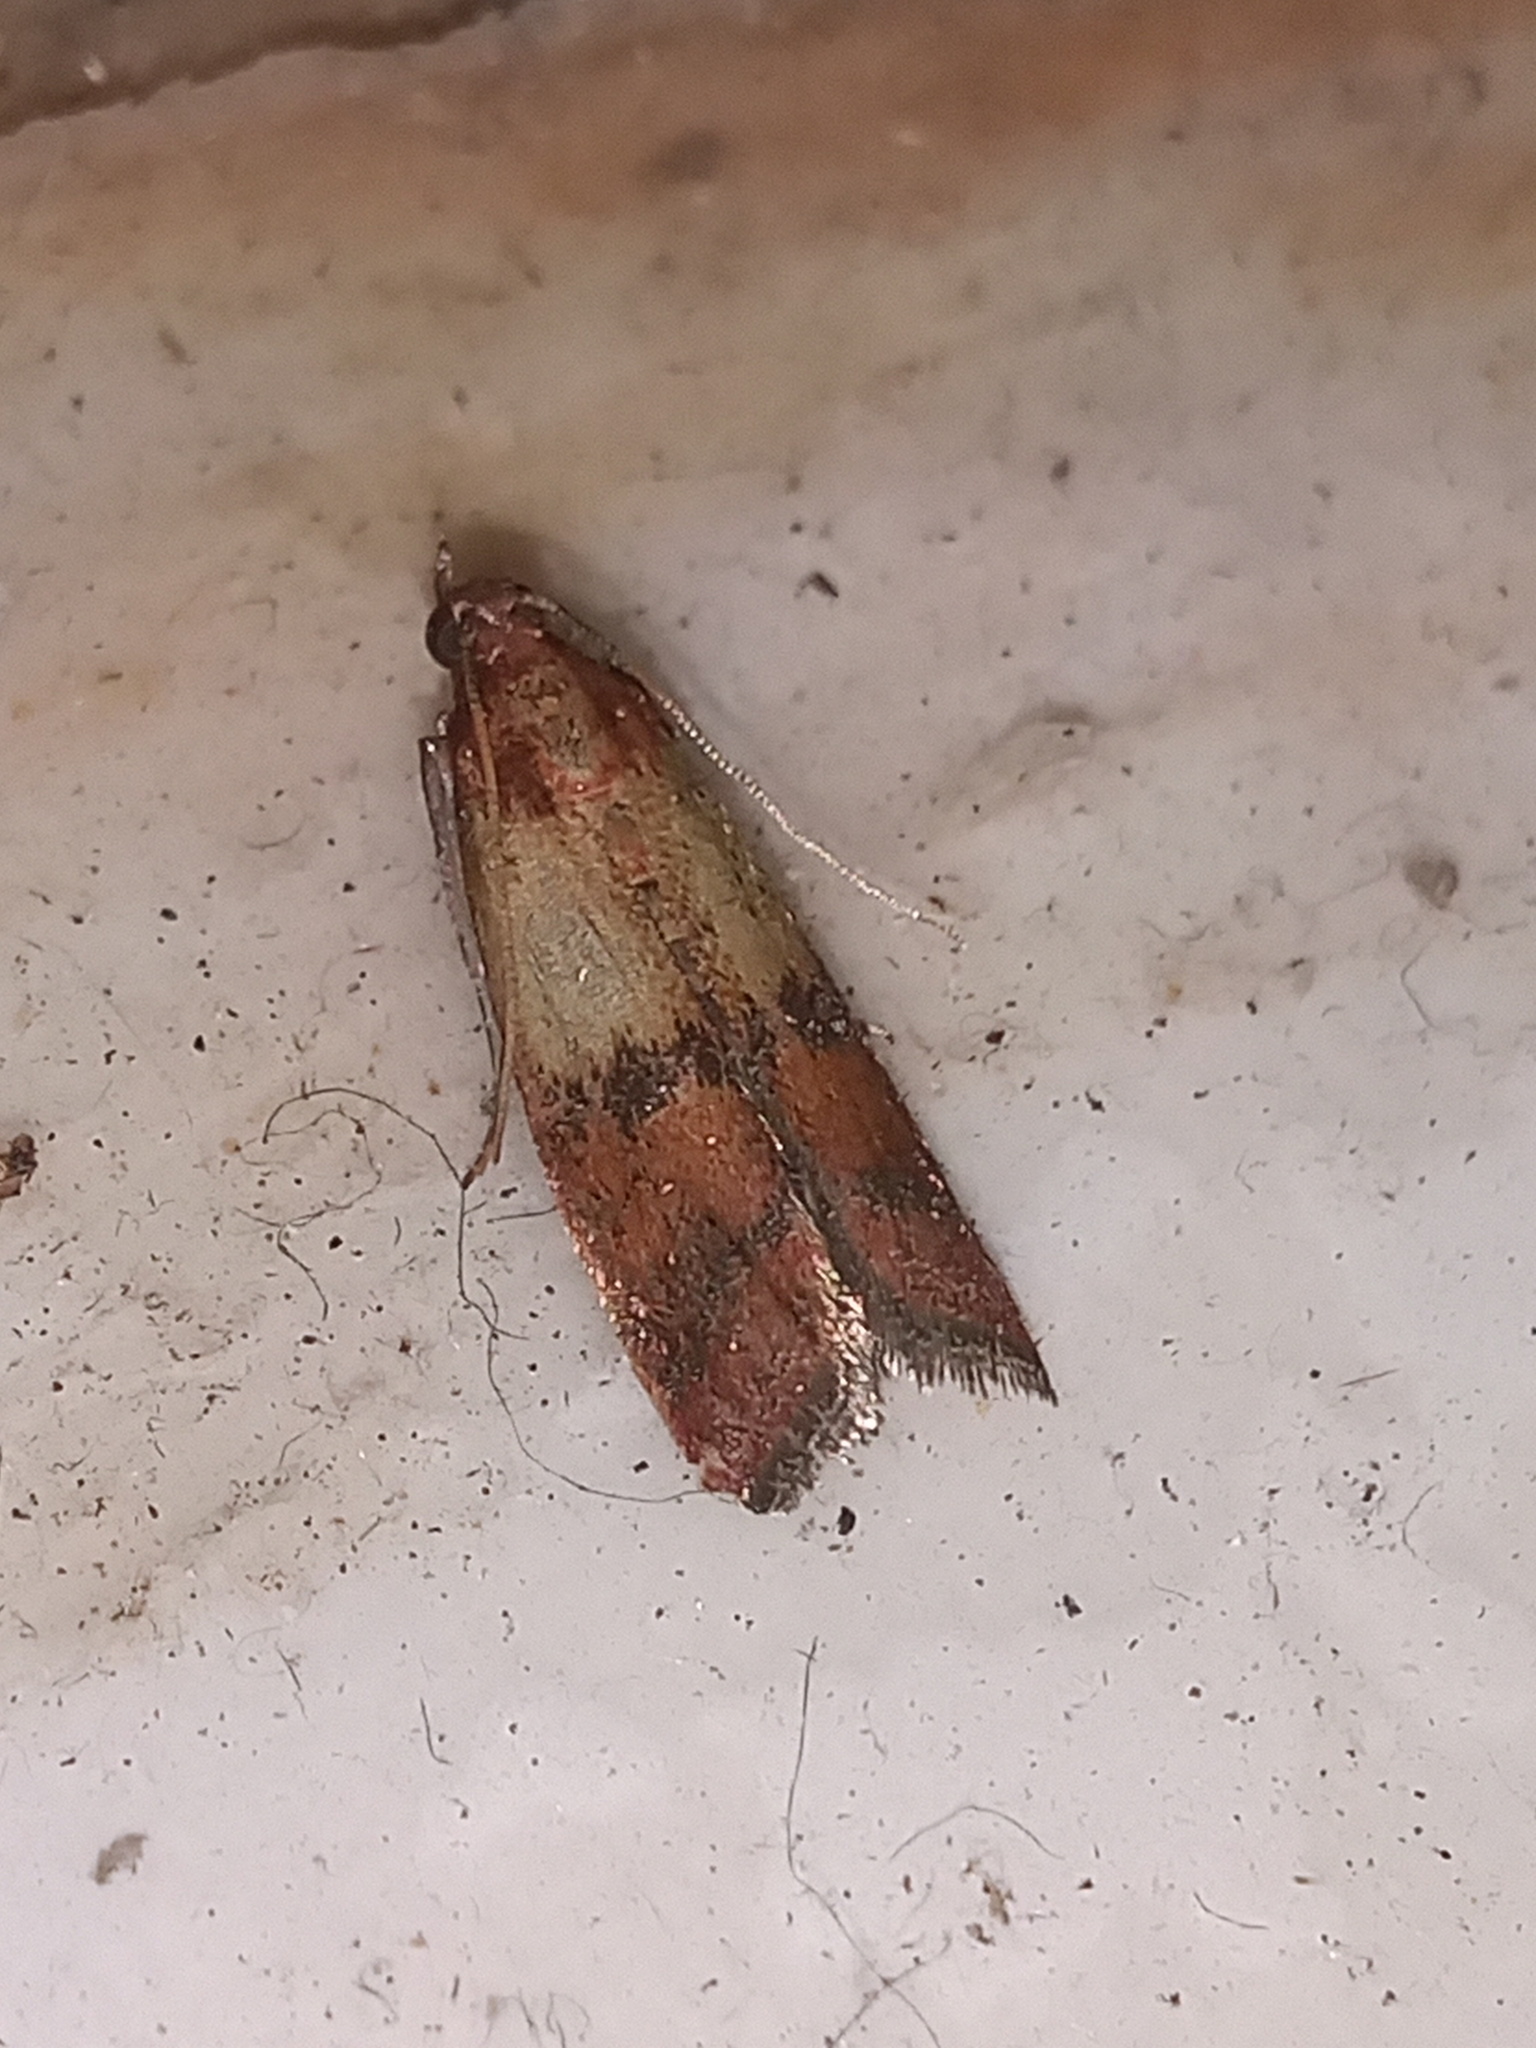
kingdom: Animalia
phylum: Arthropoda
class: Insecta
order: Lepidoptera
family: Pyralidae
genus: Plodia
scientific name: Plodia interpunctella
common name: Indian meal moth
